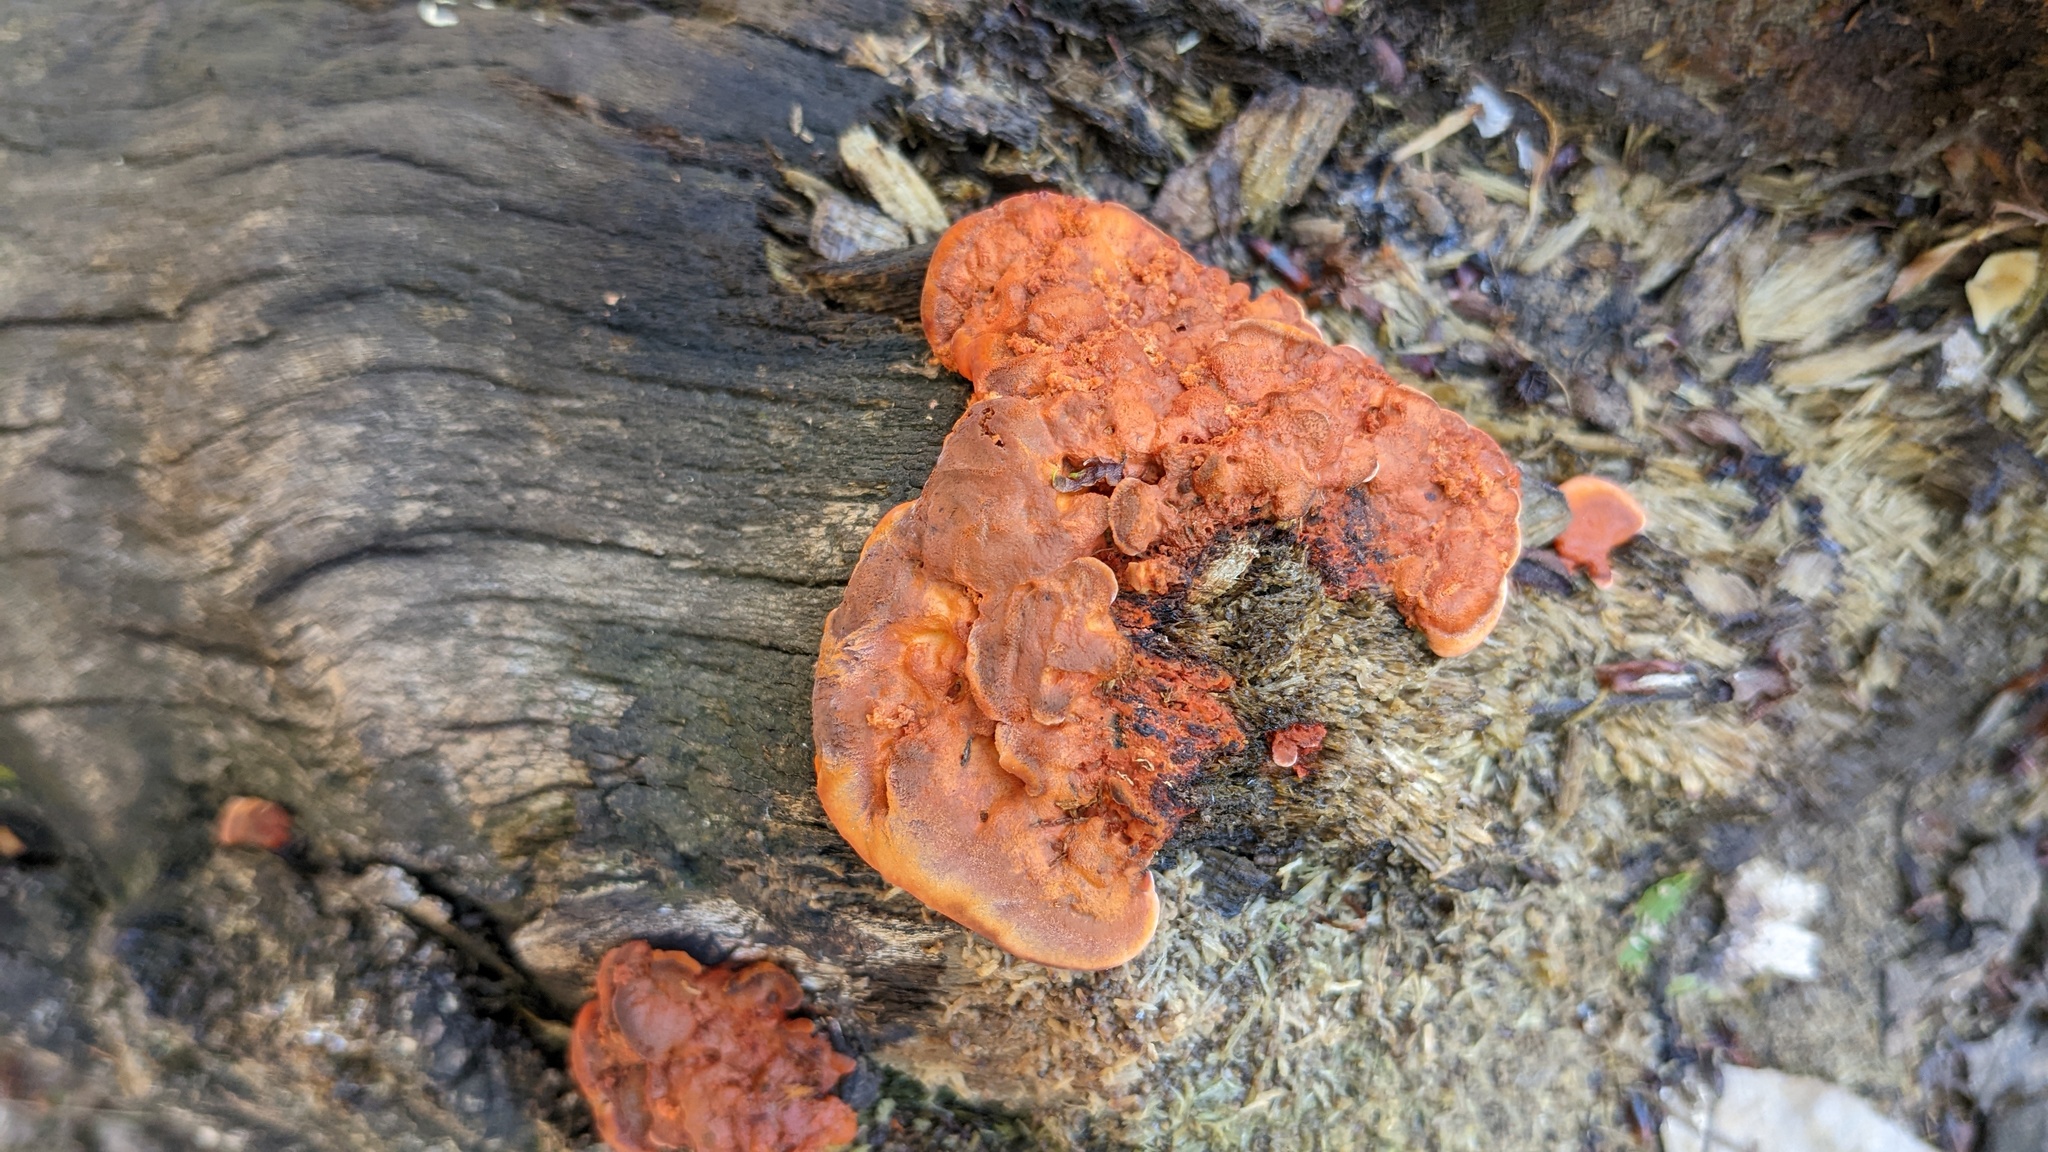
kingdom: Fungi
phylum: Basidiomycota
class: Agaricomycetes
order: Polyporales
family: Polyporaceae
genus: Trametes
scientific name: Trametes coccinea
